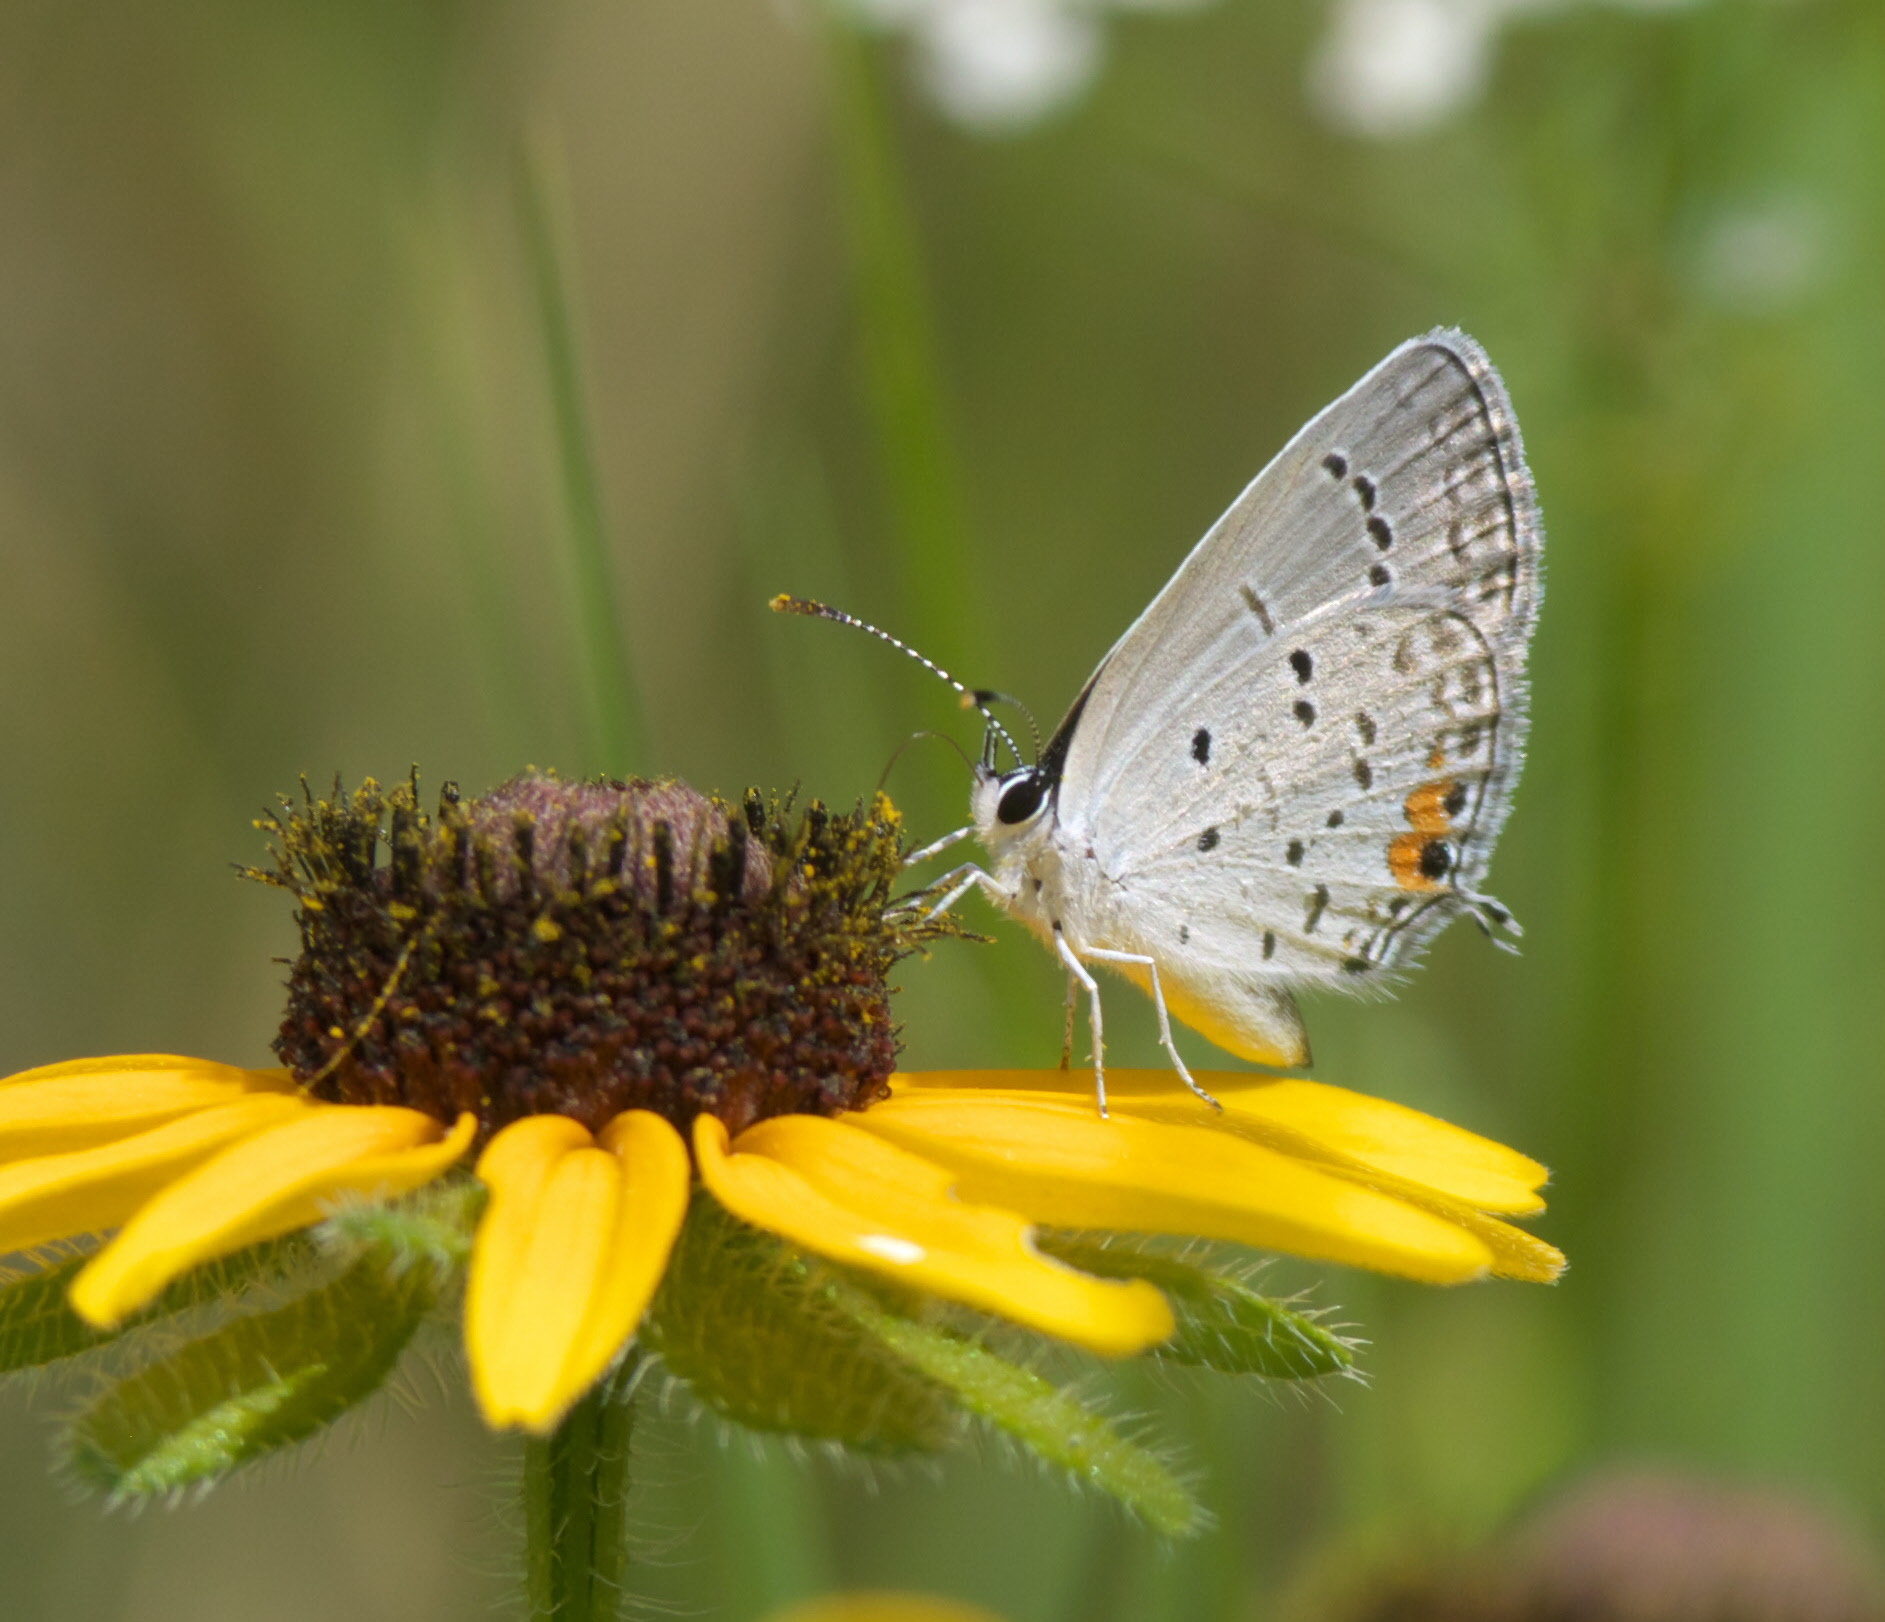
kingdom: Animalia
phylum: Arthropoda
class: Insecta
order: Lepidoptera
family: Lycaenidae
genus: Elkalyce
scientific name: Elkalyce comyntas
